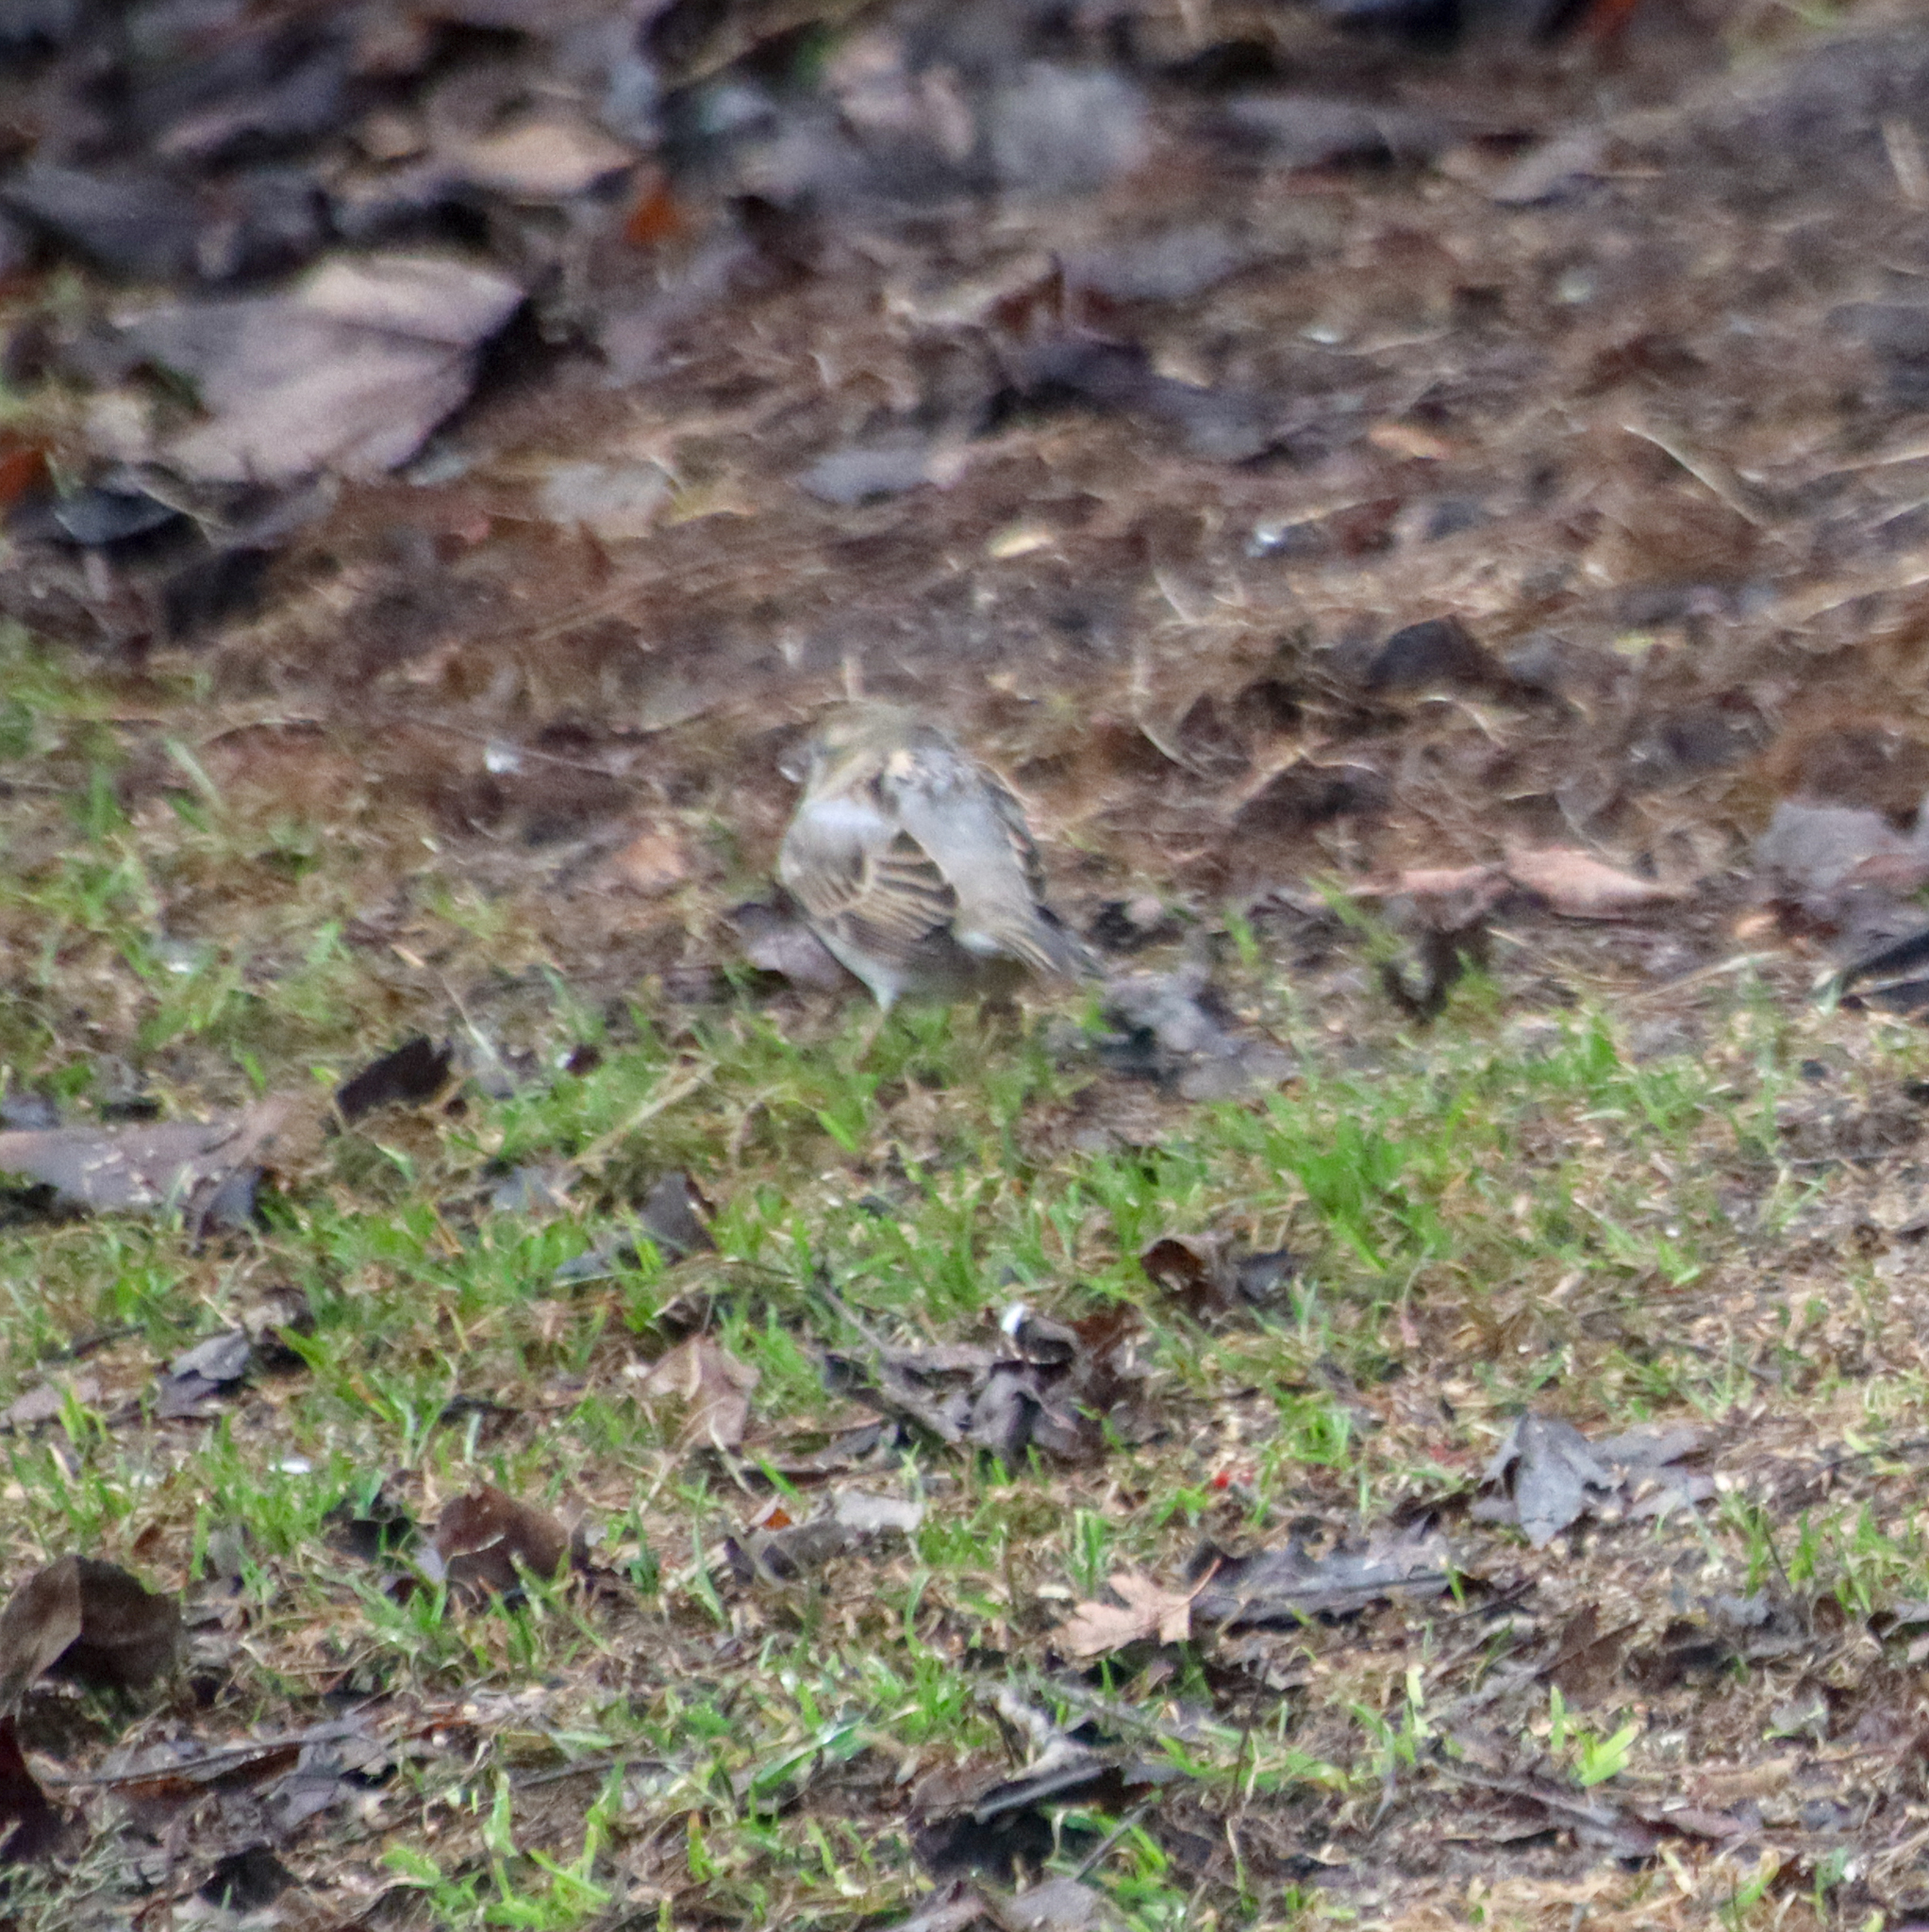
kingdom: Animalia
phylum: Chordata
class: Aves
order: Passeriformes
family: Passeridae
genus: Passer
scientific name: Passer domesticus
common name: House sparrow
